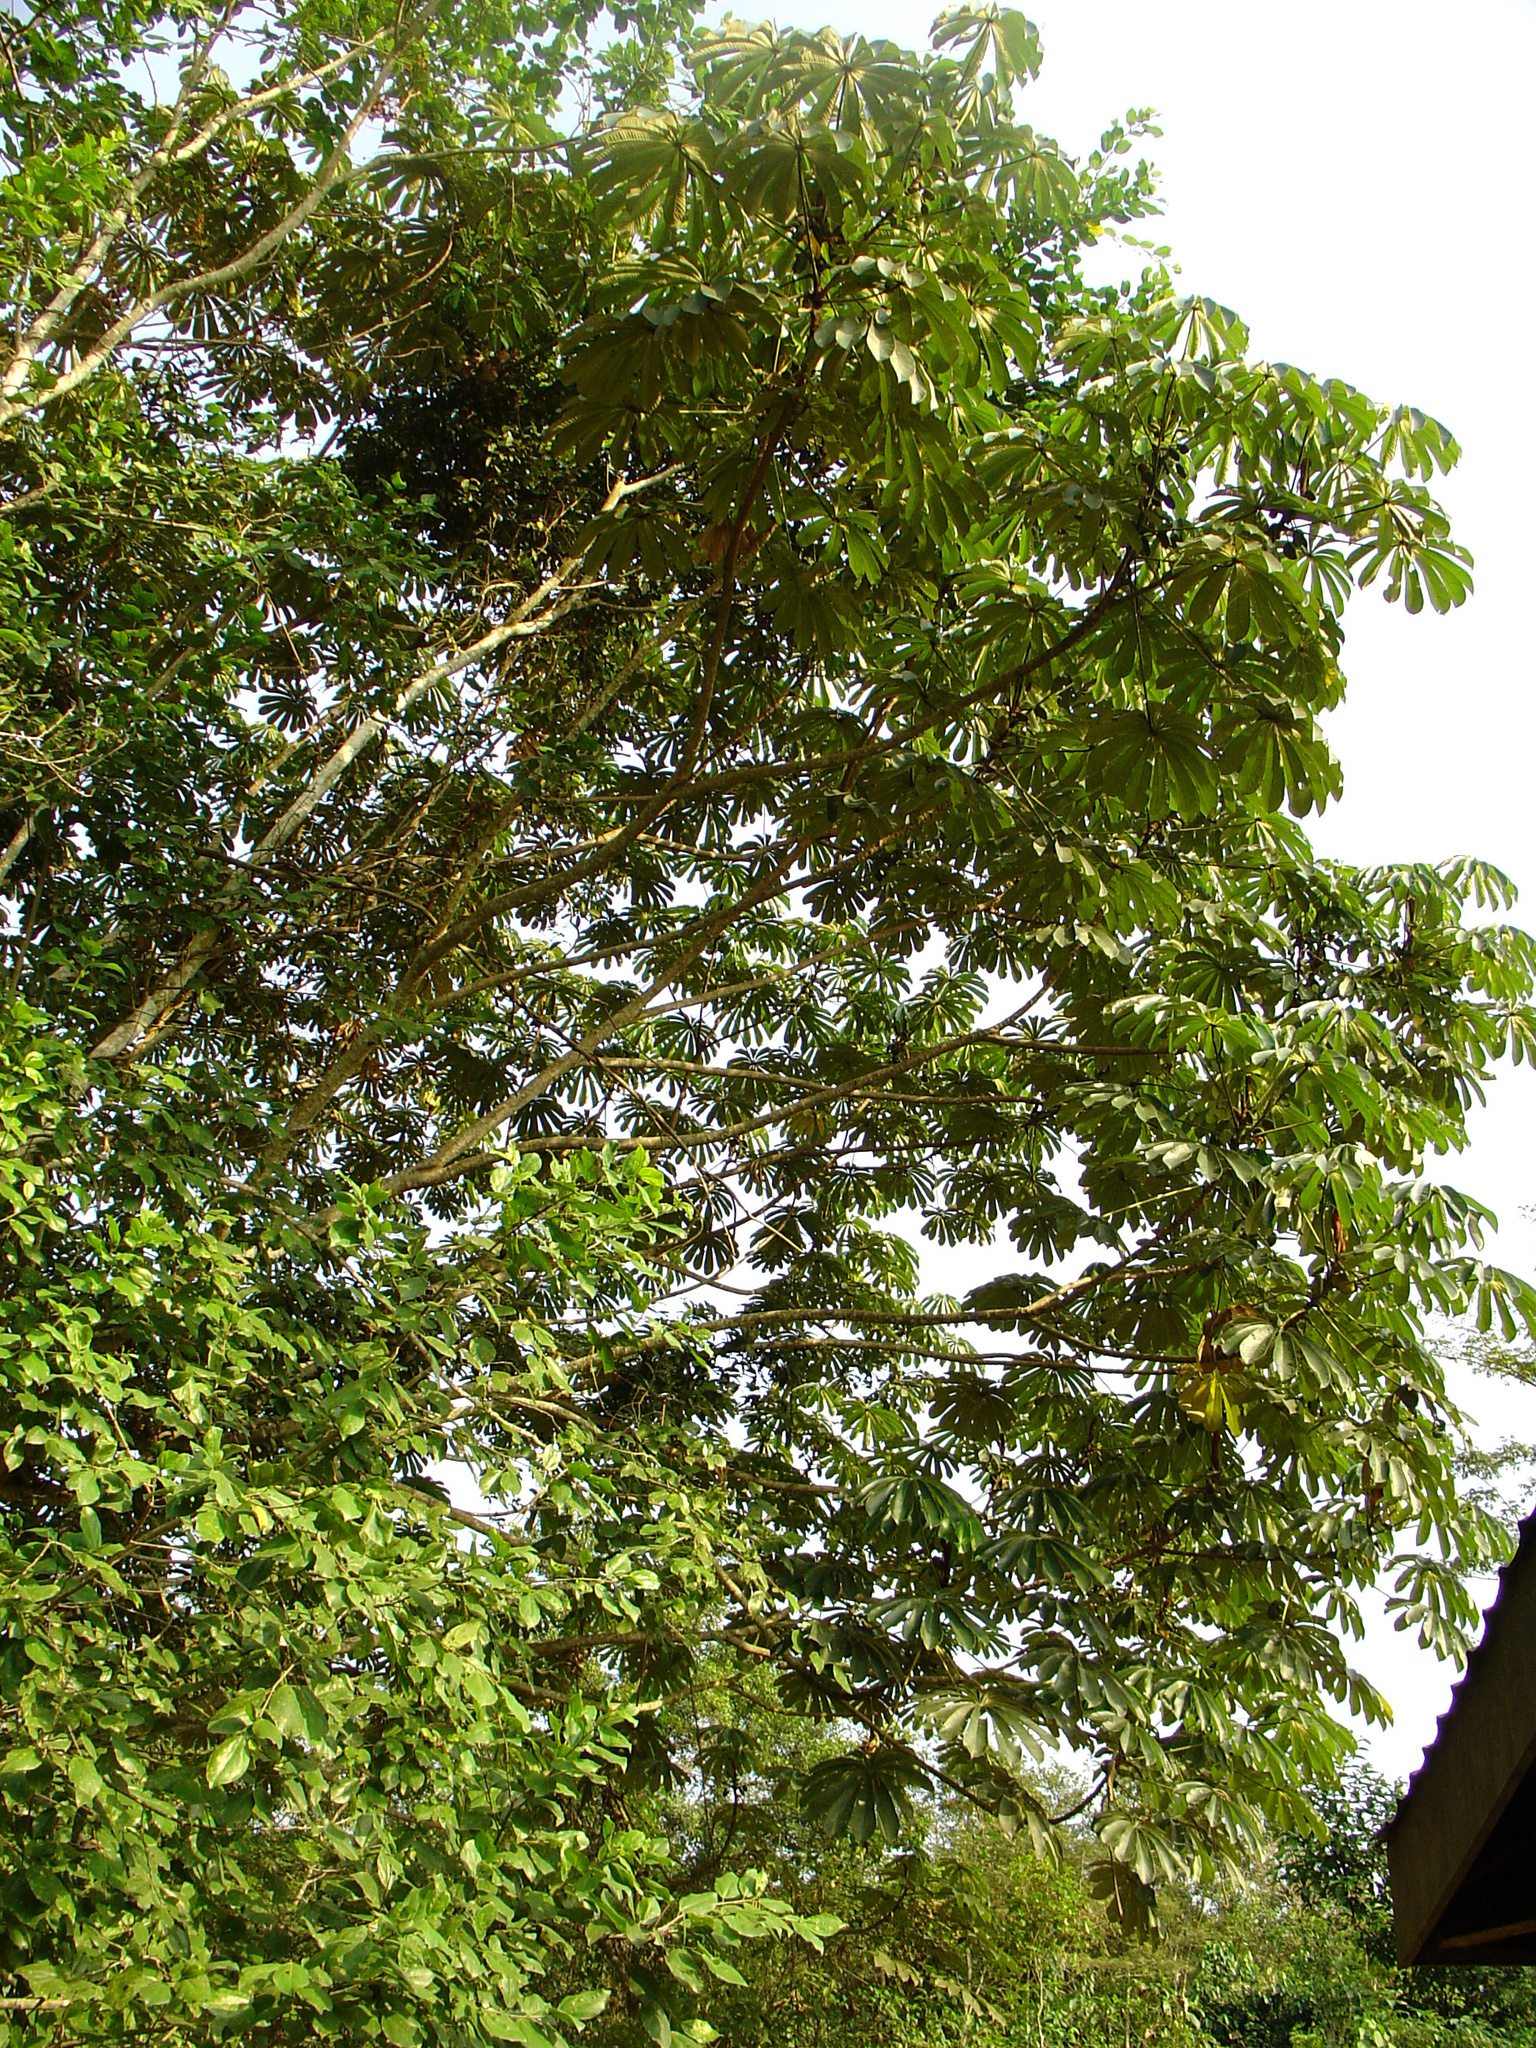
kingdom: Plantae
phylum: Tracheophyta
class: Magnoliopsida
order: Rosales
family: Urticaceae
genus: Musanga
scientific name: Musanga cecropioides
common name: African corkwood
